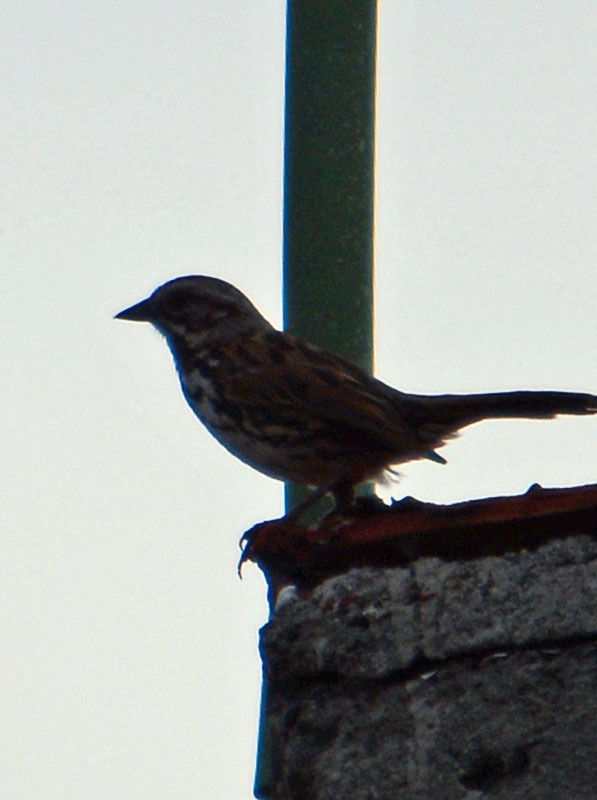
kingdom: Animalia
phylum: Chordata
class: Aves
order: Passeriformes
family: Passerellidae
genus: Melospiza
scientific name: Melospiza melodia
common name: Song sparrow
